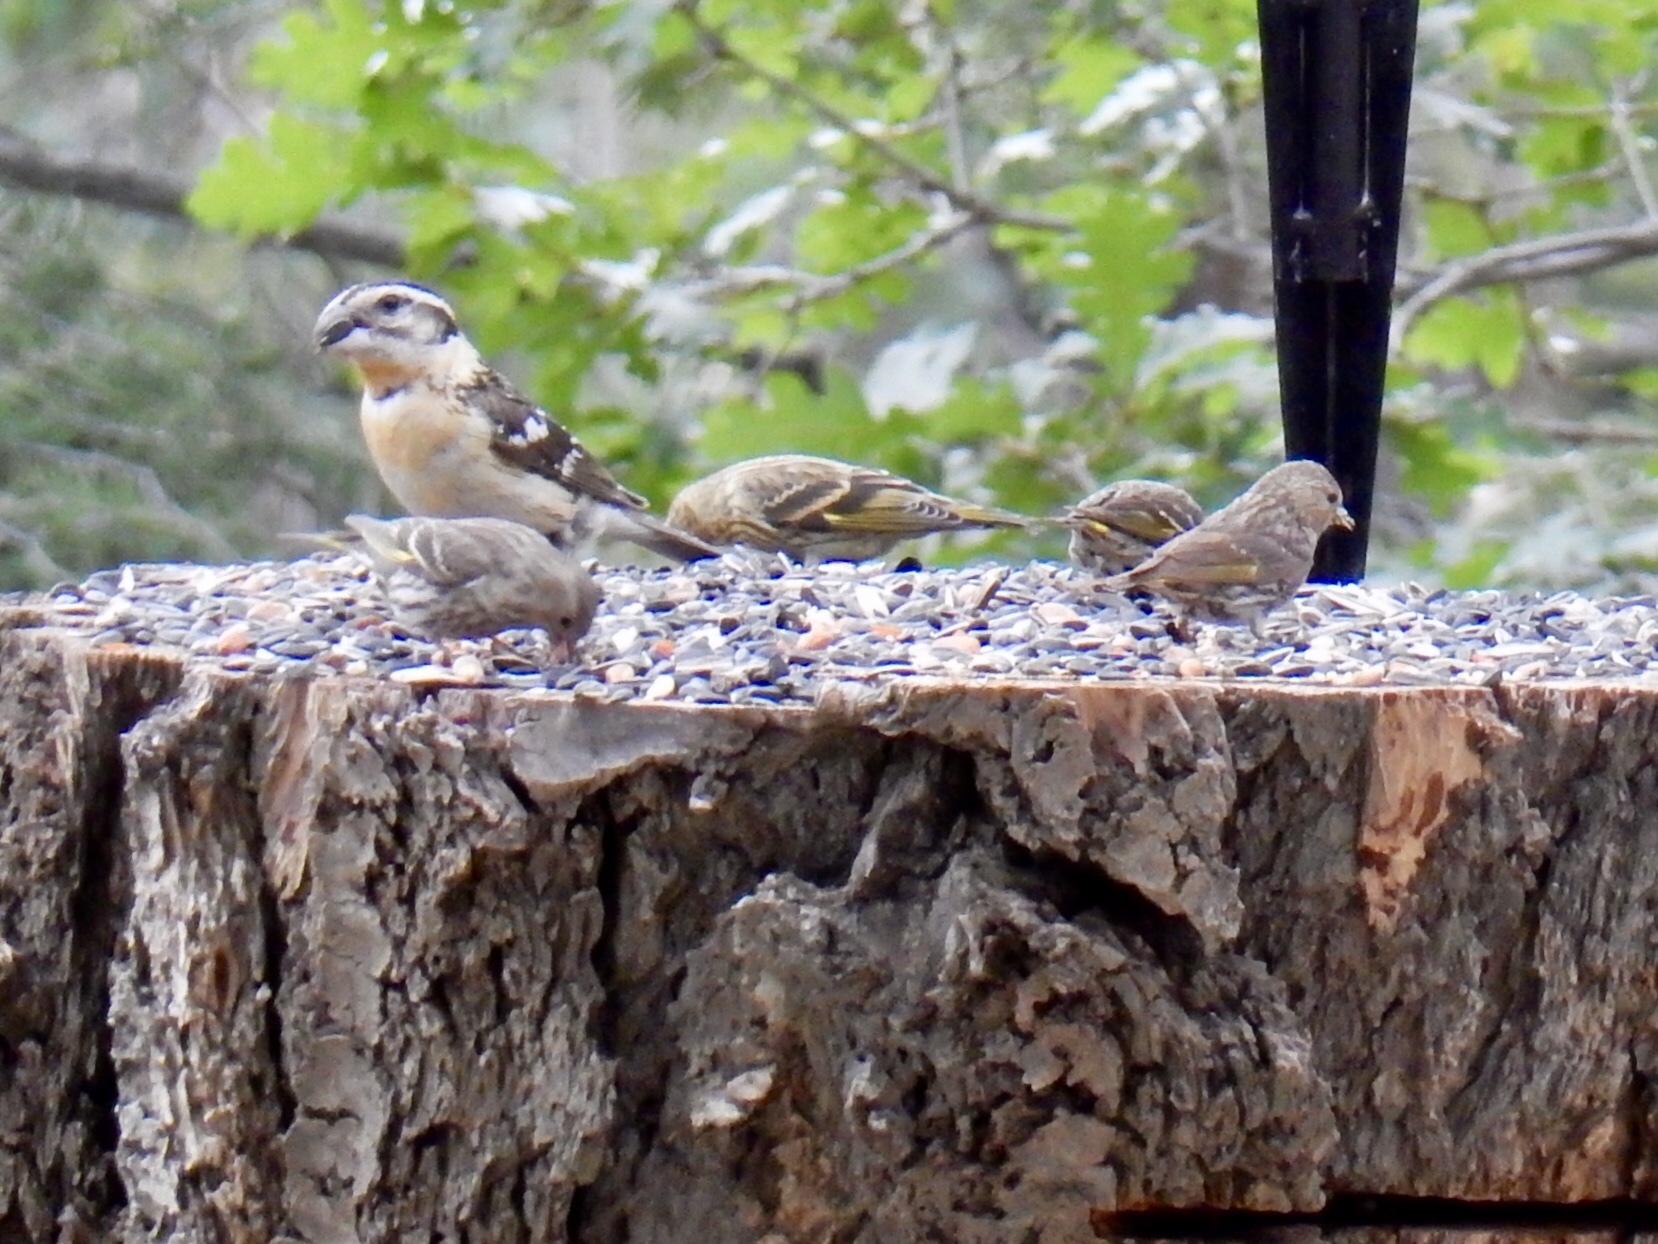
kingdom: Animalia
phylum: Chordata
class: Aves
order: Passeriformes
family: Fringillidae
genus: Spinus
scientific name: Spinus pinus
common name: Pine siskin
